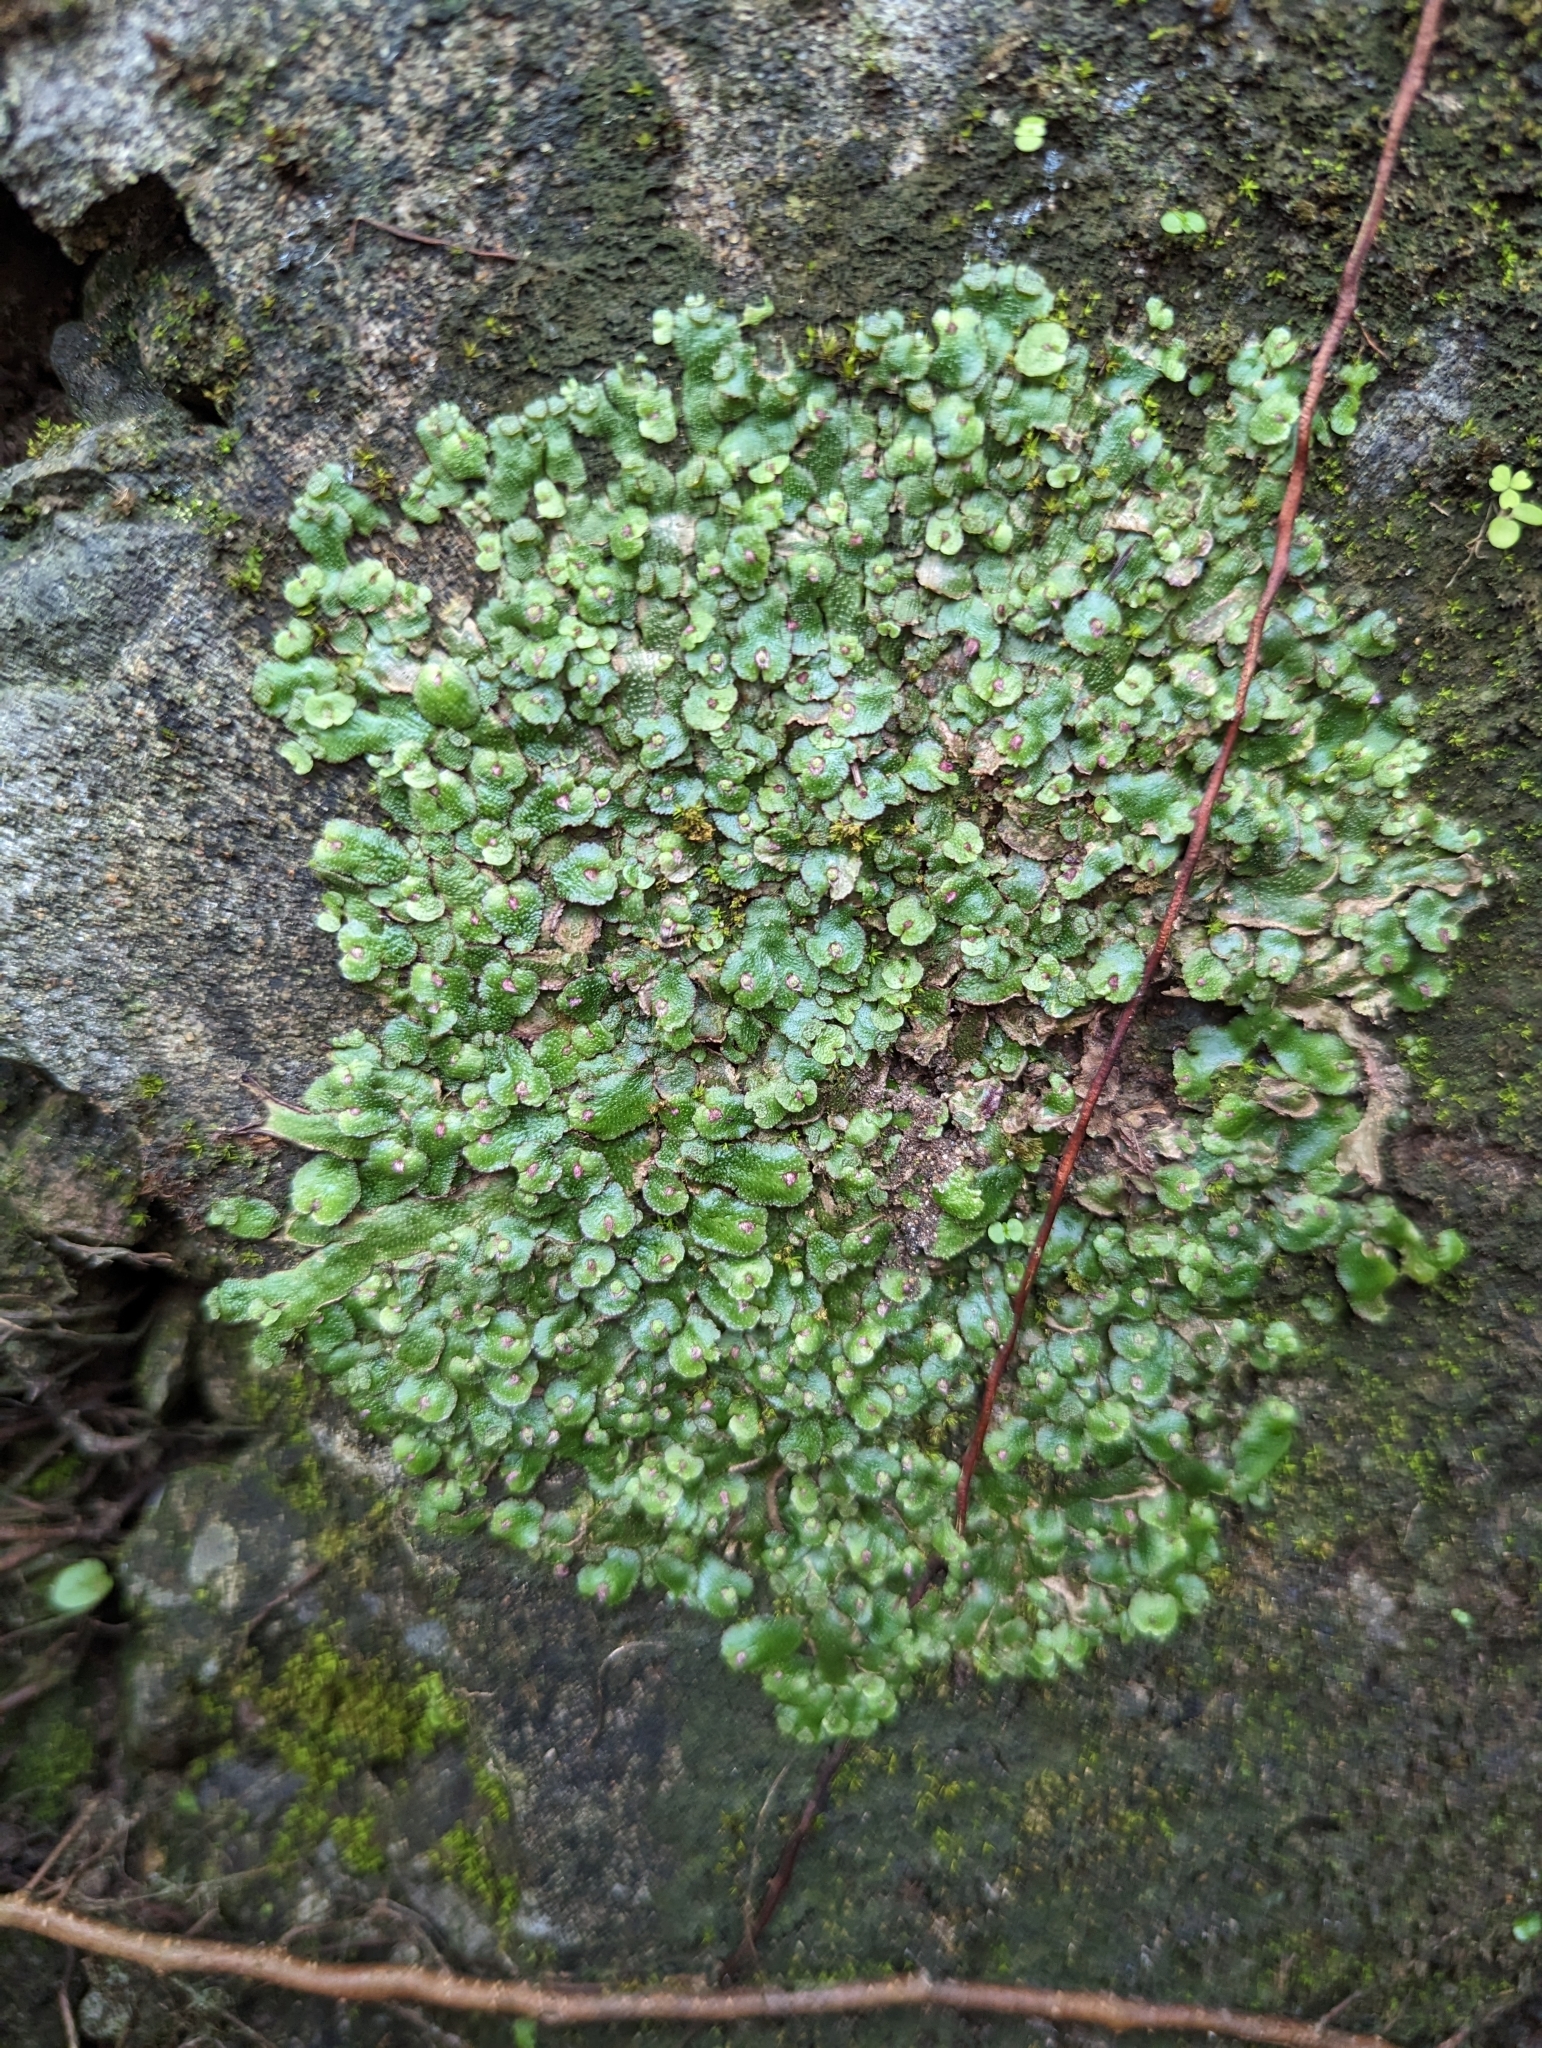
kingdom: Plantae
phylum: Marchantiophyta
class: Marchantiopsida
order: Marchantiales
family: Aytoniaceae
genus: Reboulia
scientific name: Reboulia hemisphaerica
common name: Purple-margined liverwort
